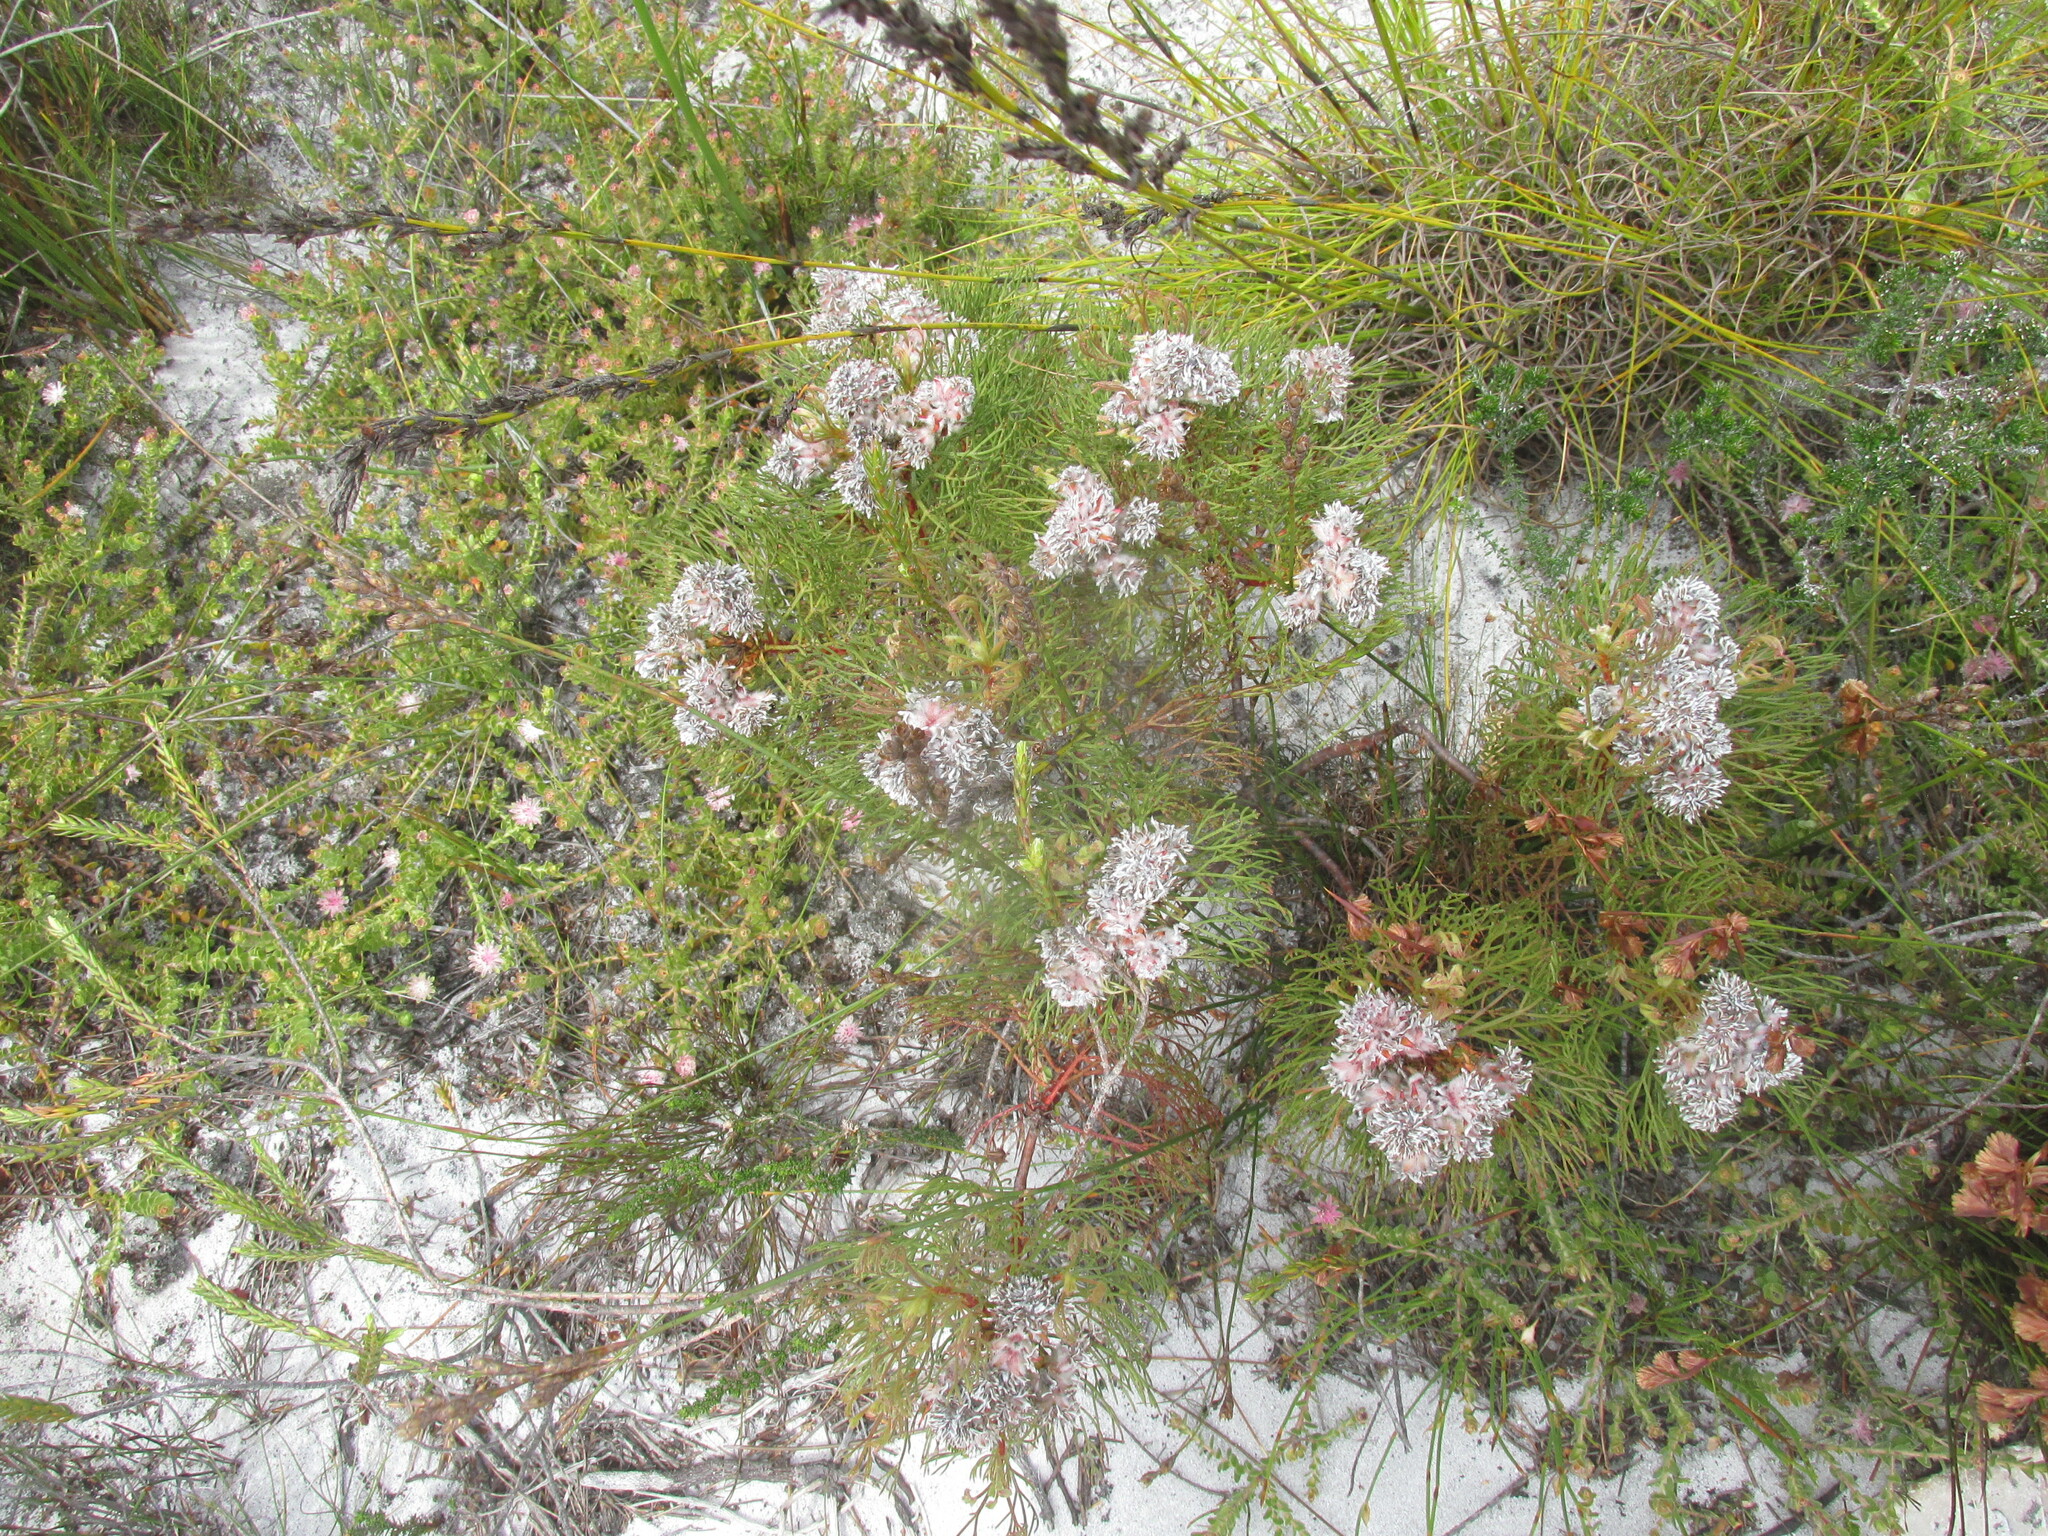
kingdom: Plantae
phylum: Tracheophyta
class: Magnoliopsida
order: Proteales
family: Proteaceae
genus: Serruria
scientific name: Serruria glomerata
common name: Cluster spiderhead
